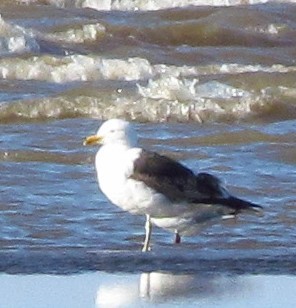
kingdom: Animalia
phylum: Chordata
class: Aves
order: Charadriiformes
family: Laridae
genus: Larus
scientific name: Larus dominicanus
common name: Kelp gull
